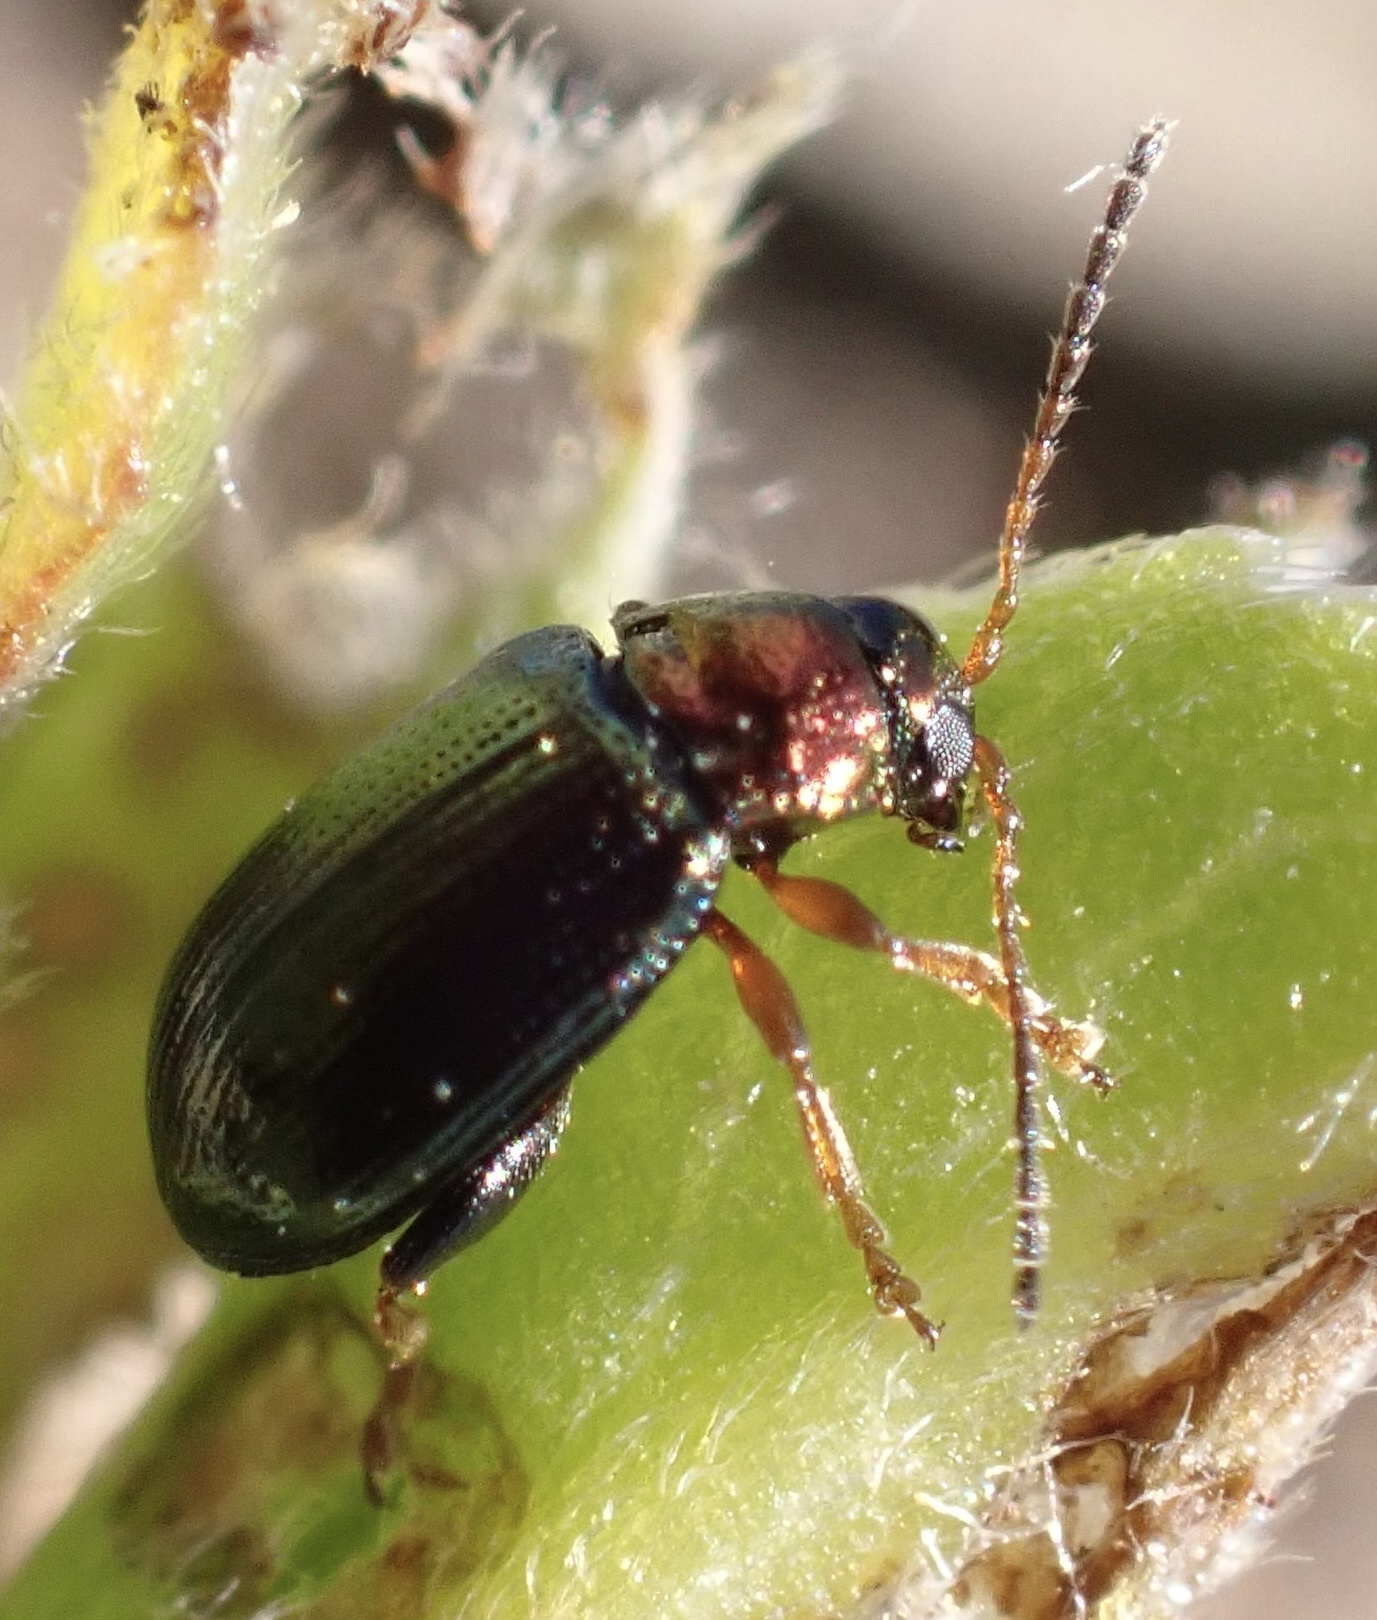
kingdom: Animalia
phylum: Arthropoda
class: Insecta
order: Coleoptera
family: Chrysomelidae
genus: Crepidodera
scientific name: Crepidodera aurata
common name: Willow flea beetle
